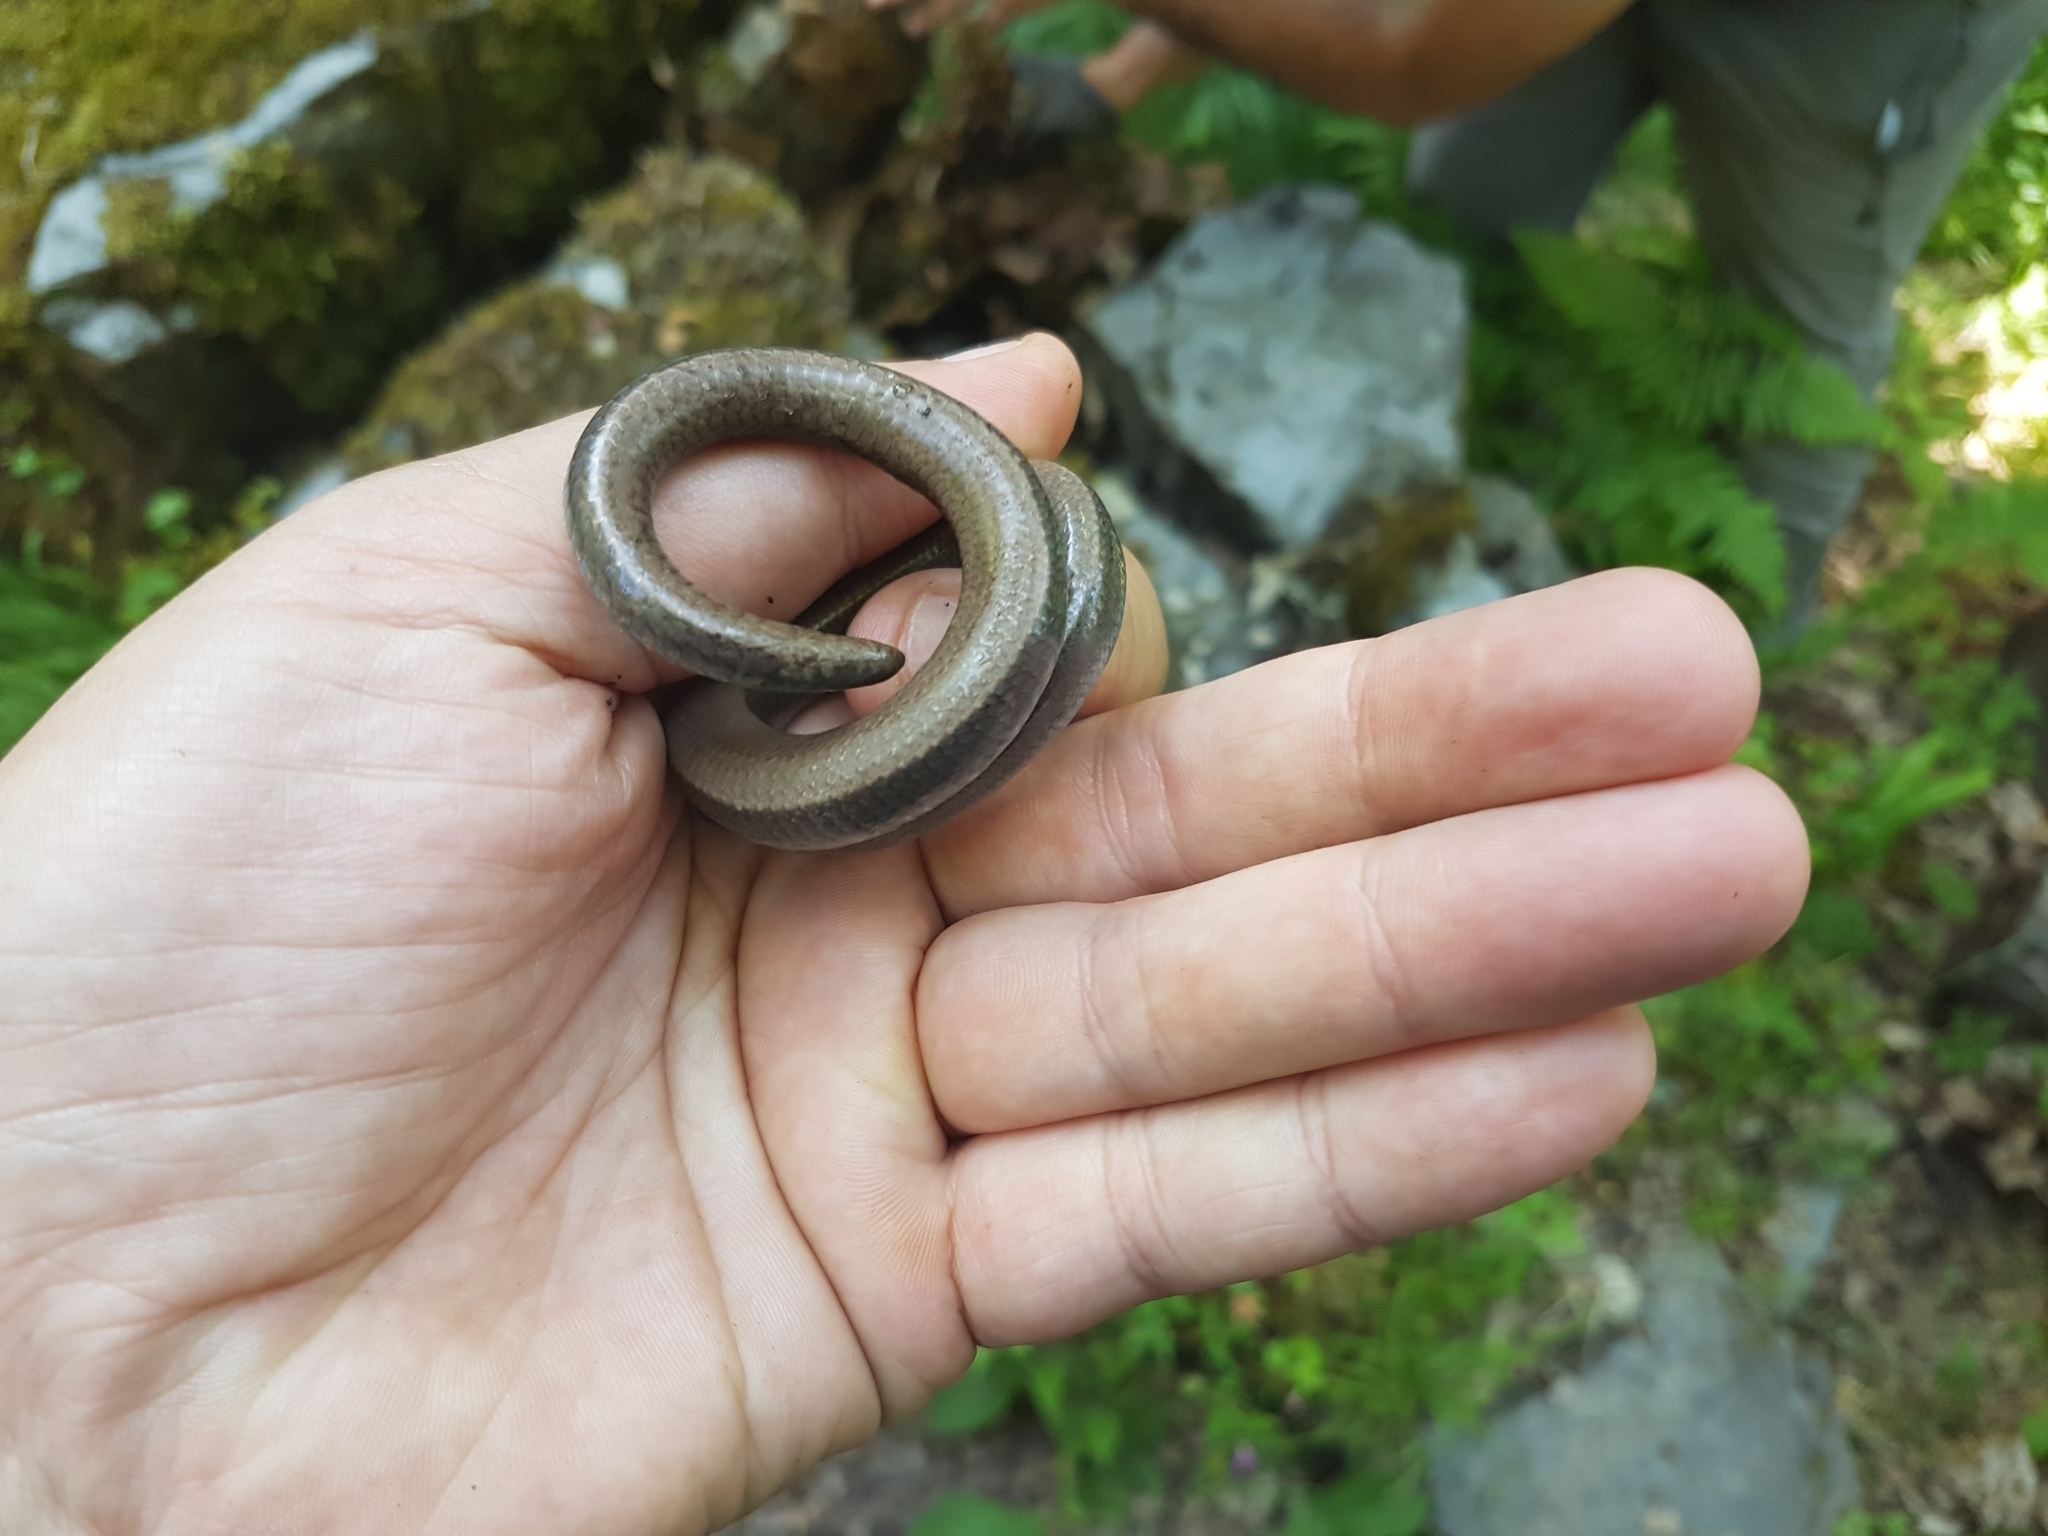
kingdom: Animalia
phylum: Chordata
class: Squamata
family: Anguidae
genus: Anguis
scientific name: Anguis fragilis
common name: Slow worm
